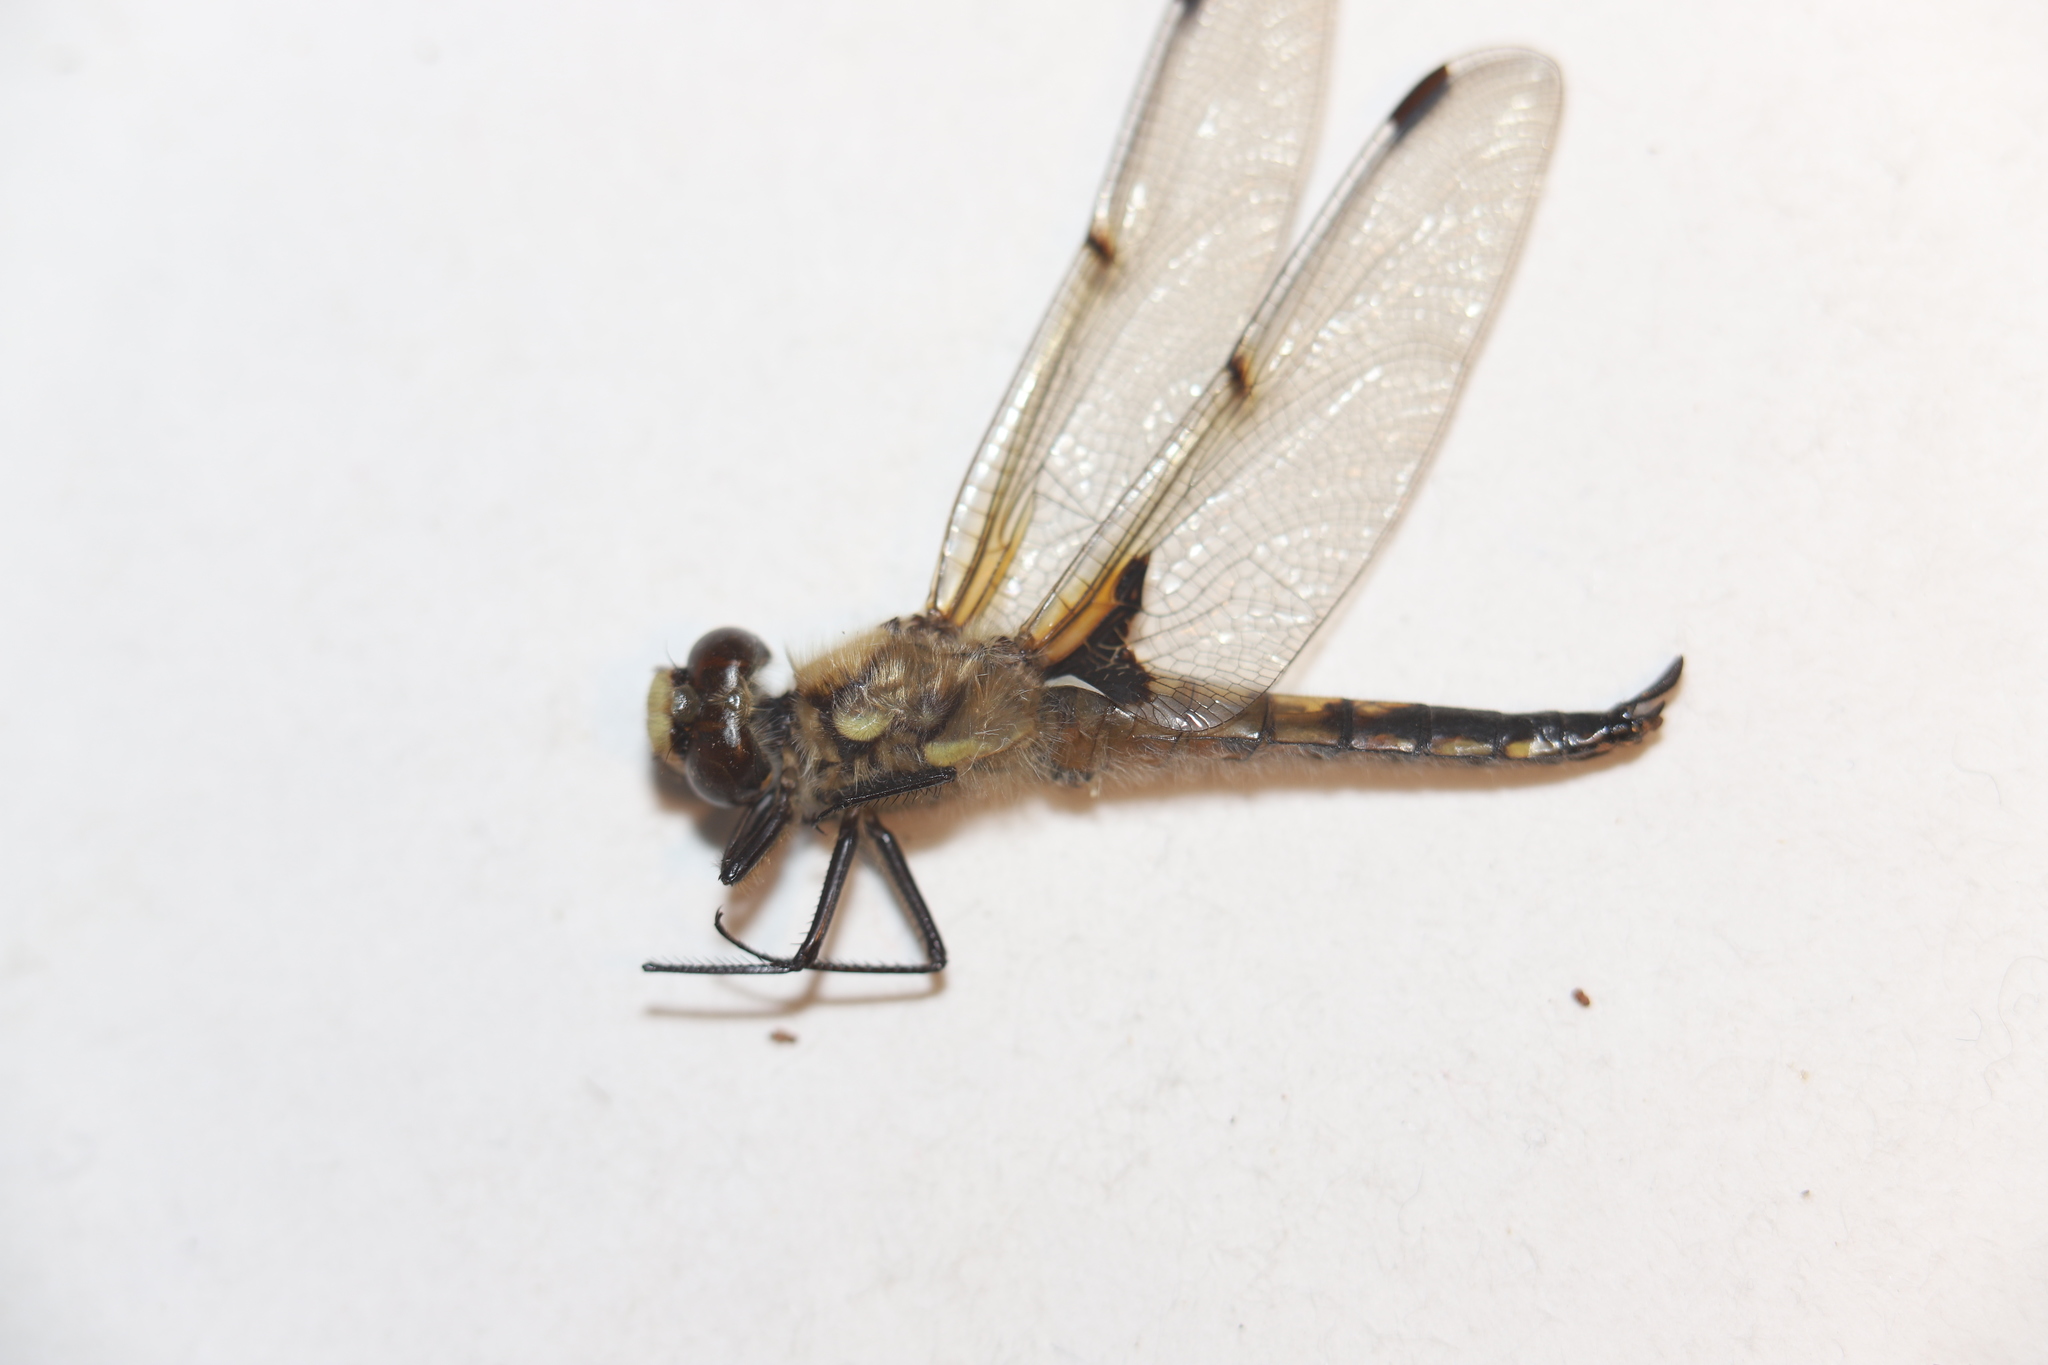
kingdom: Animalia
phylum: Arthropoda
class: Insecta
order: Odonata
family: Libellulidae
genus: Libellula
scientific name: Libellula quadrimaculata
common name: Four-spotted chaser
